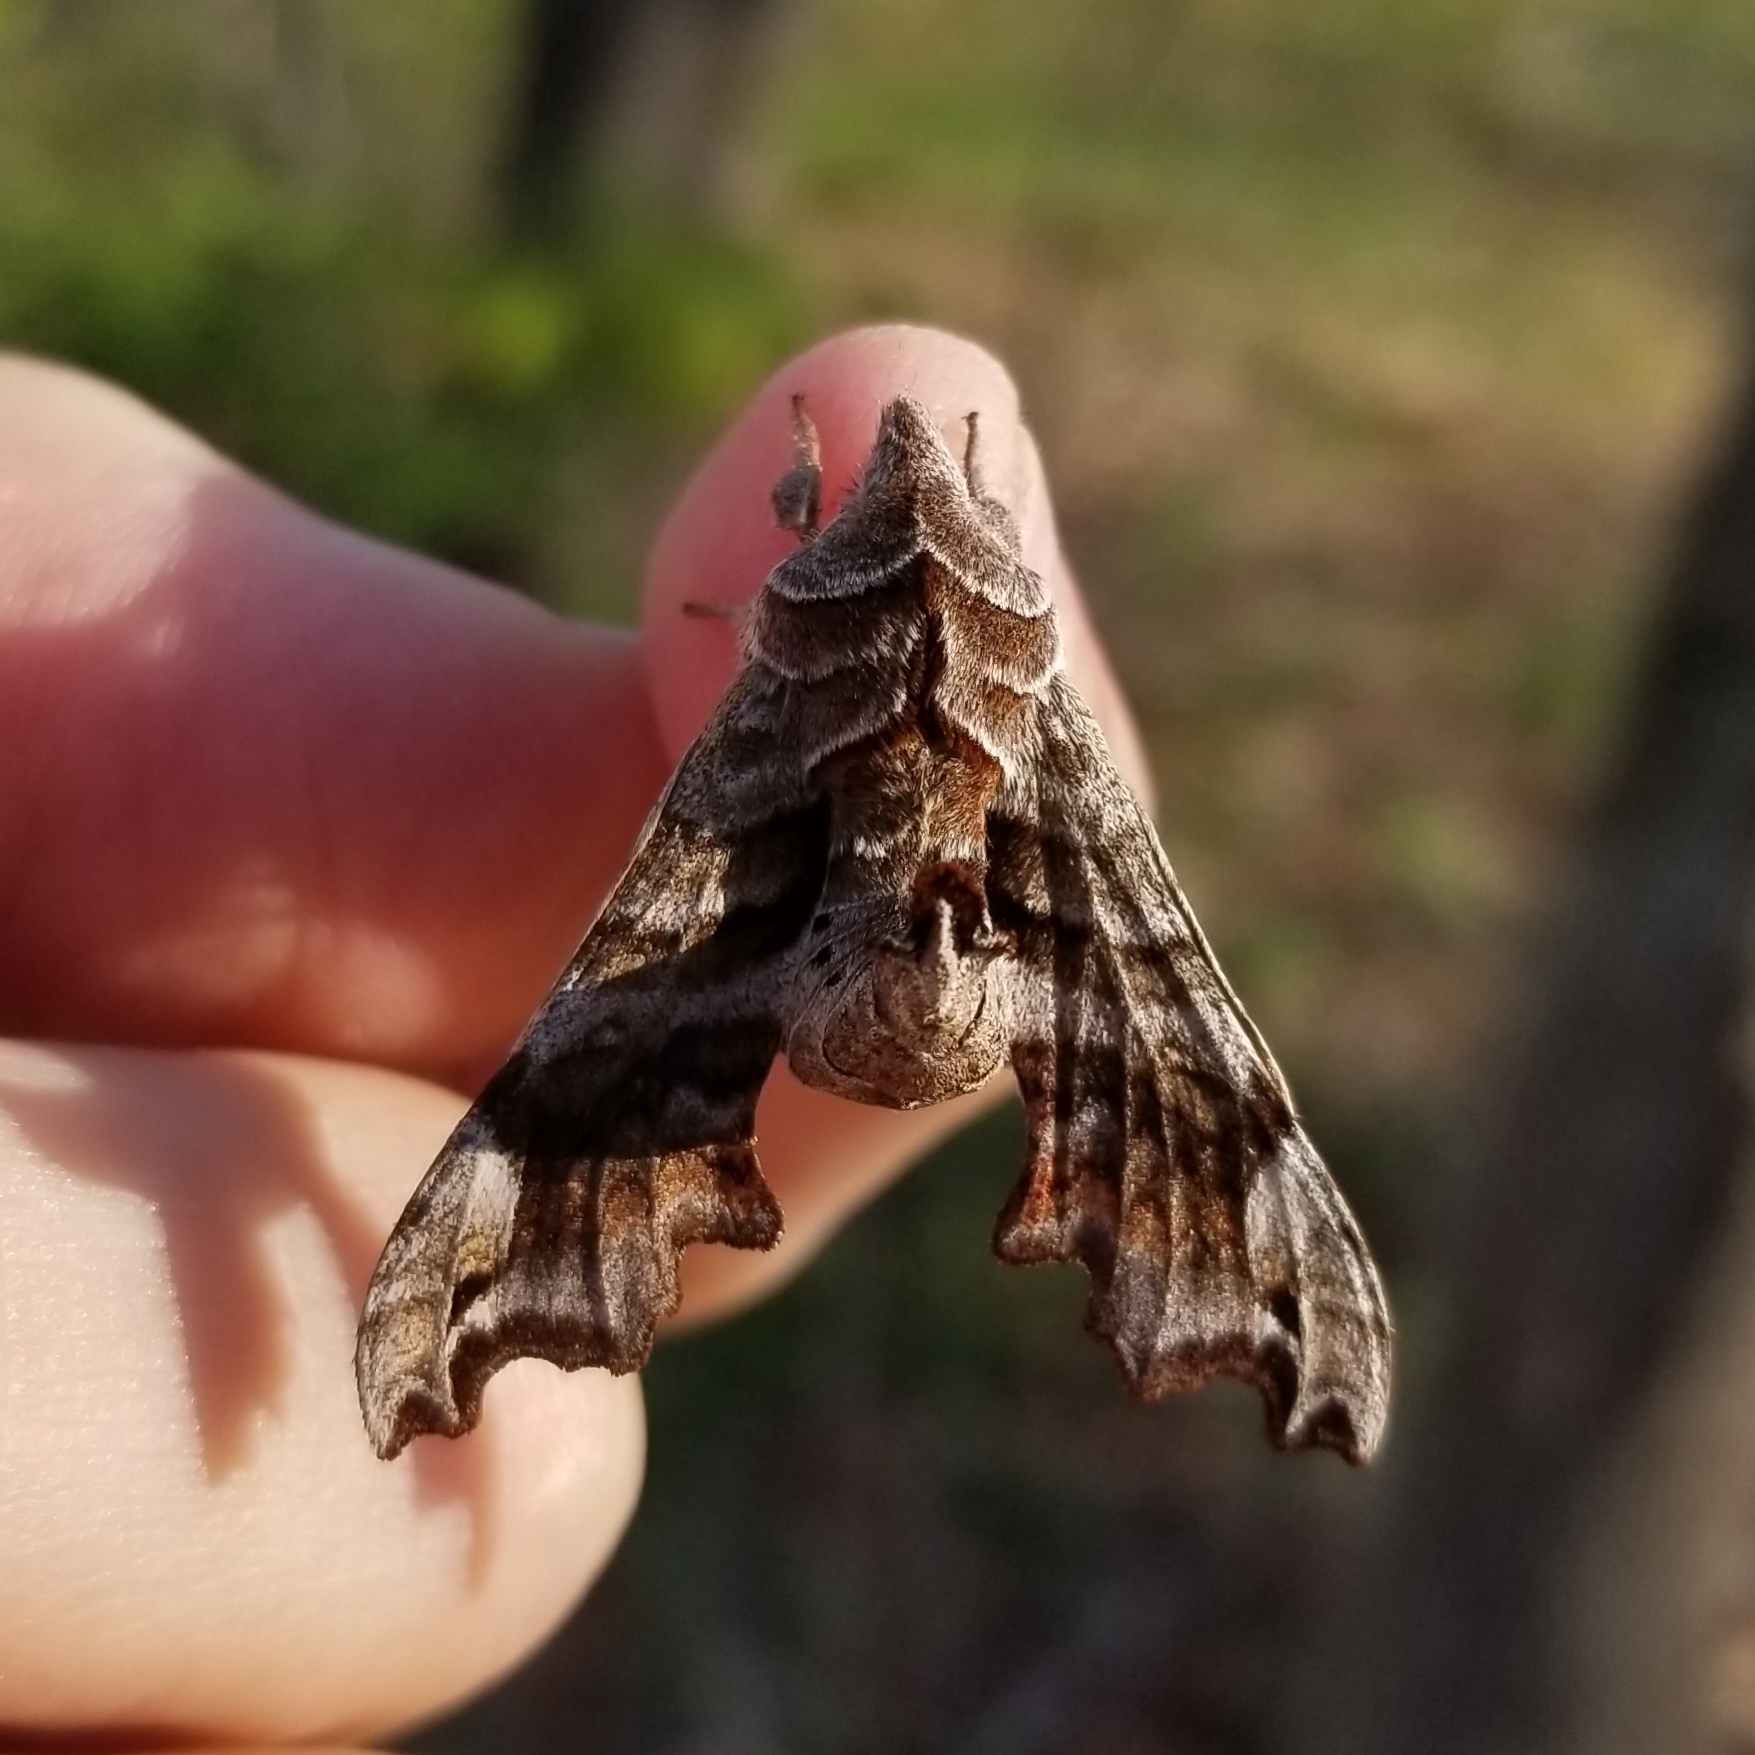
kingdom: Animalia
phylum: Arthropoda
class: Insecta
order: Lepidoptera
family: Sphingidae
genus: Deidamia
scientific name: Deidamia inscriptum
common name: Lettered sphinx
